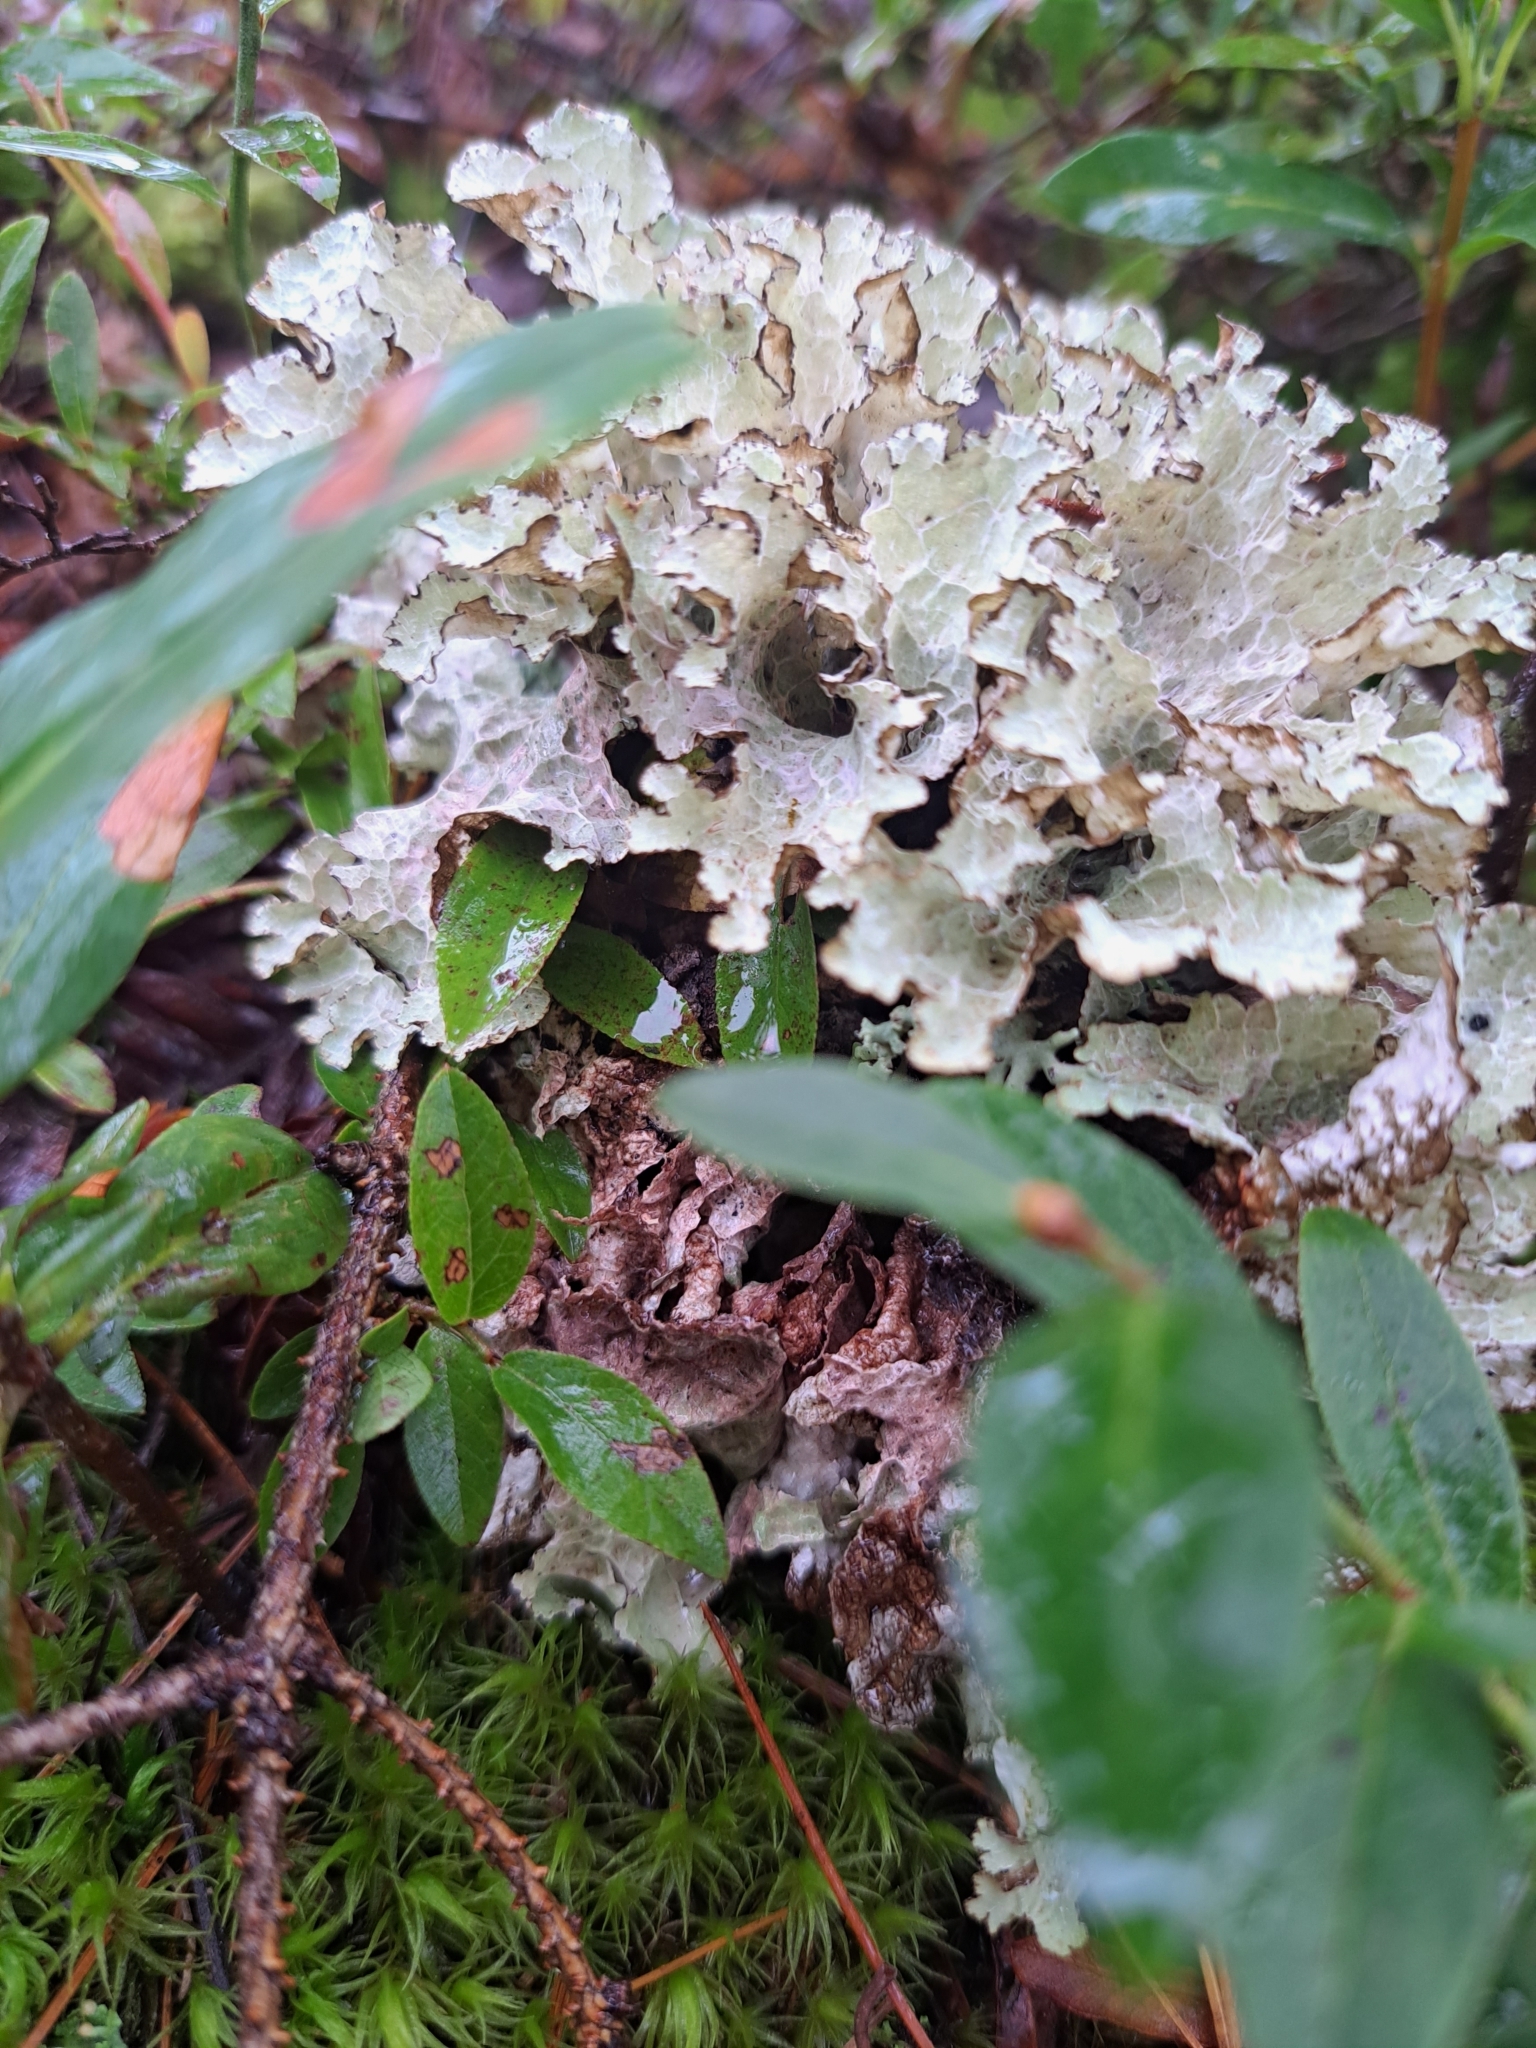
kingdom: Fungi
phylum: Ascomycota
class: Lecanoromycetes
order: Lecanorales
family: Parmeliaceae
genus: Platismatia
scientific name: Platismatia tuckermanii
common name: Crumpled rag lichen
